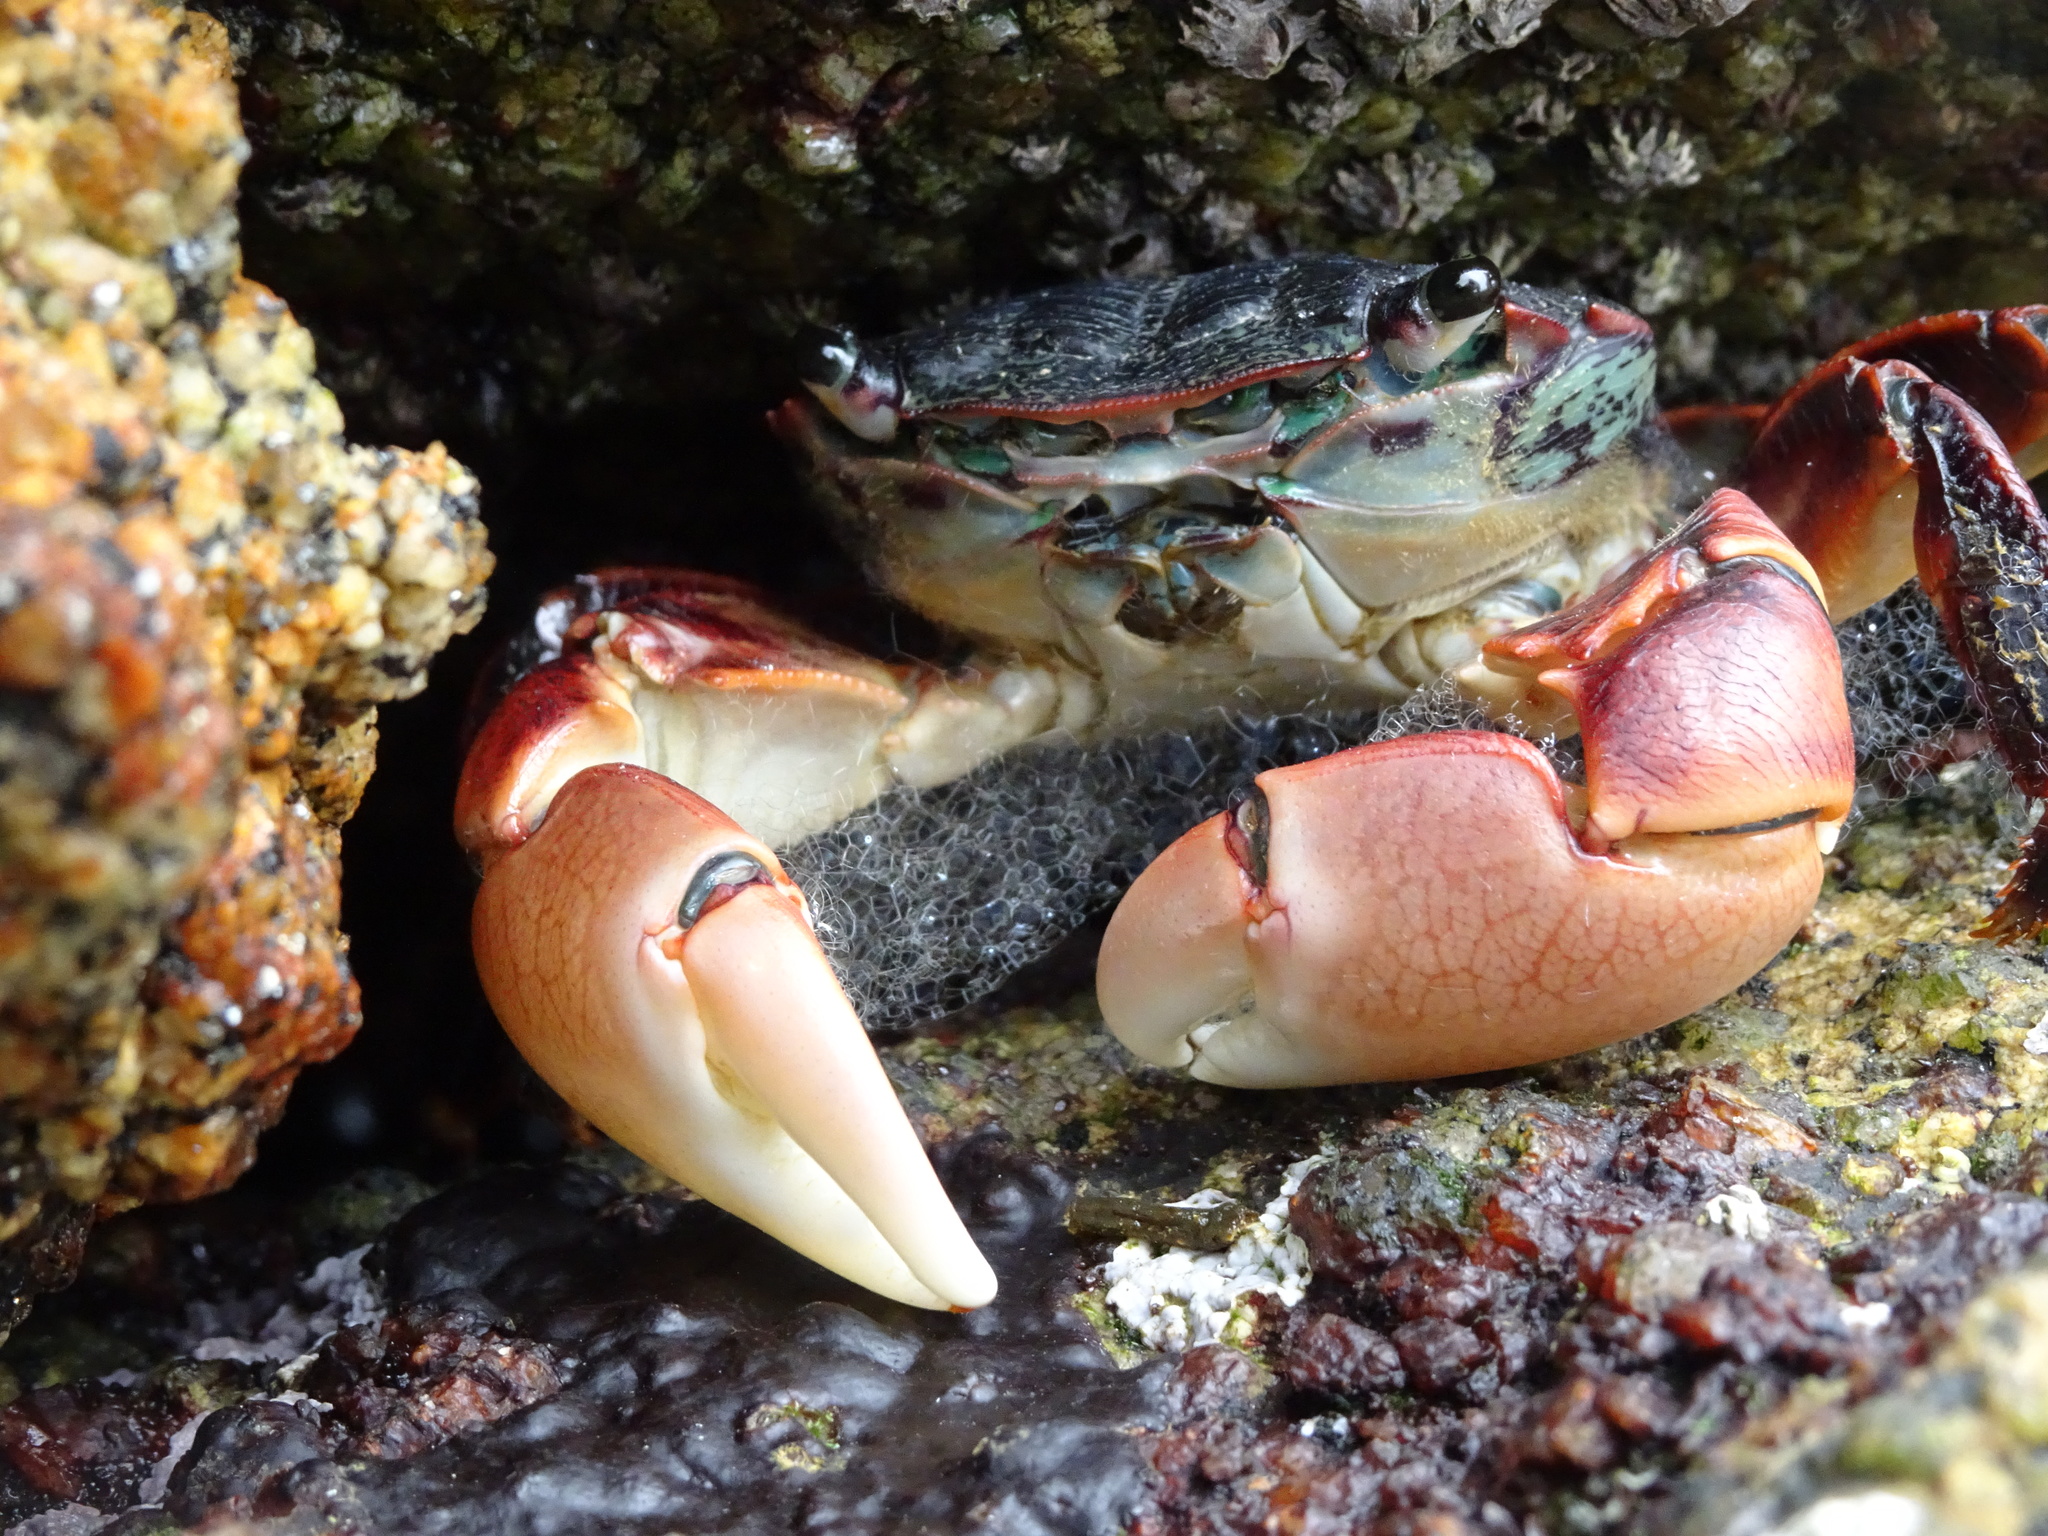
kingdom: Animalia
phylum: Arthropoda
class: Malacostraca
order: Decapoda
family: Grapsidae
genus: Pachygrapsus
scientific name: Pachygrapsus crassipes
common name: Striped shore crab
